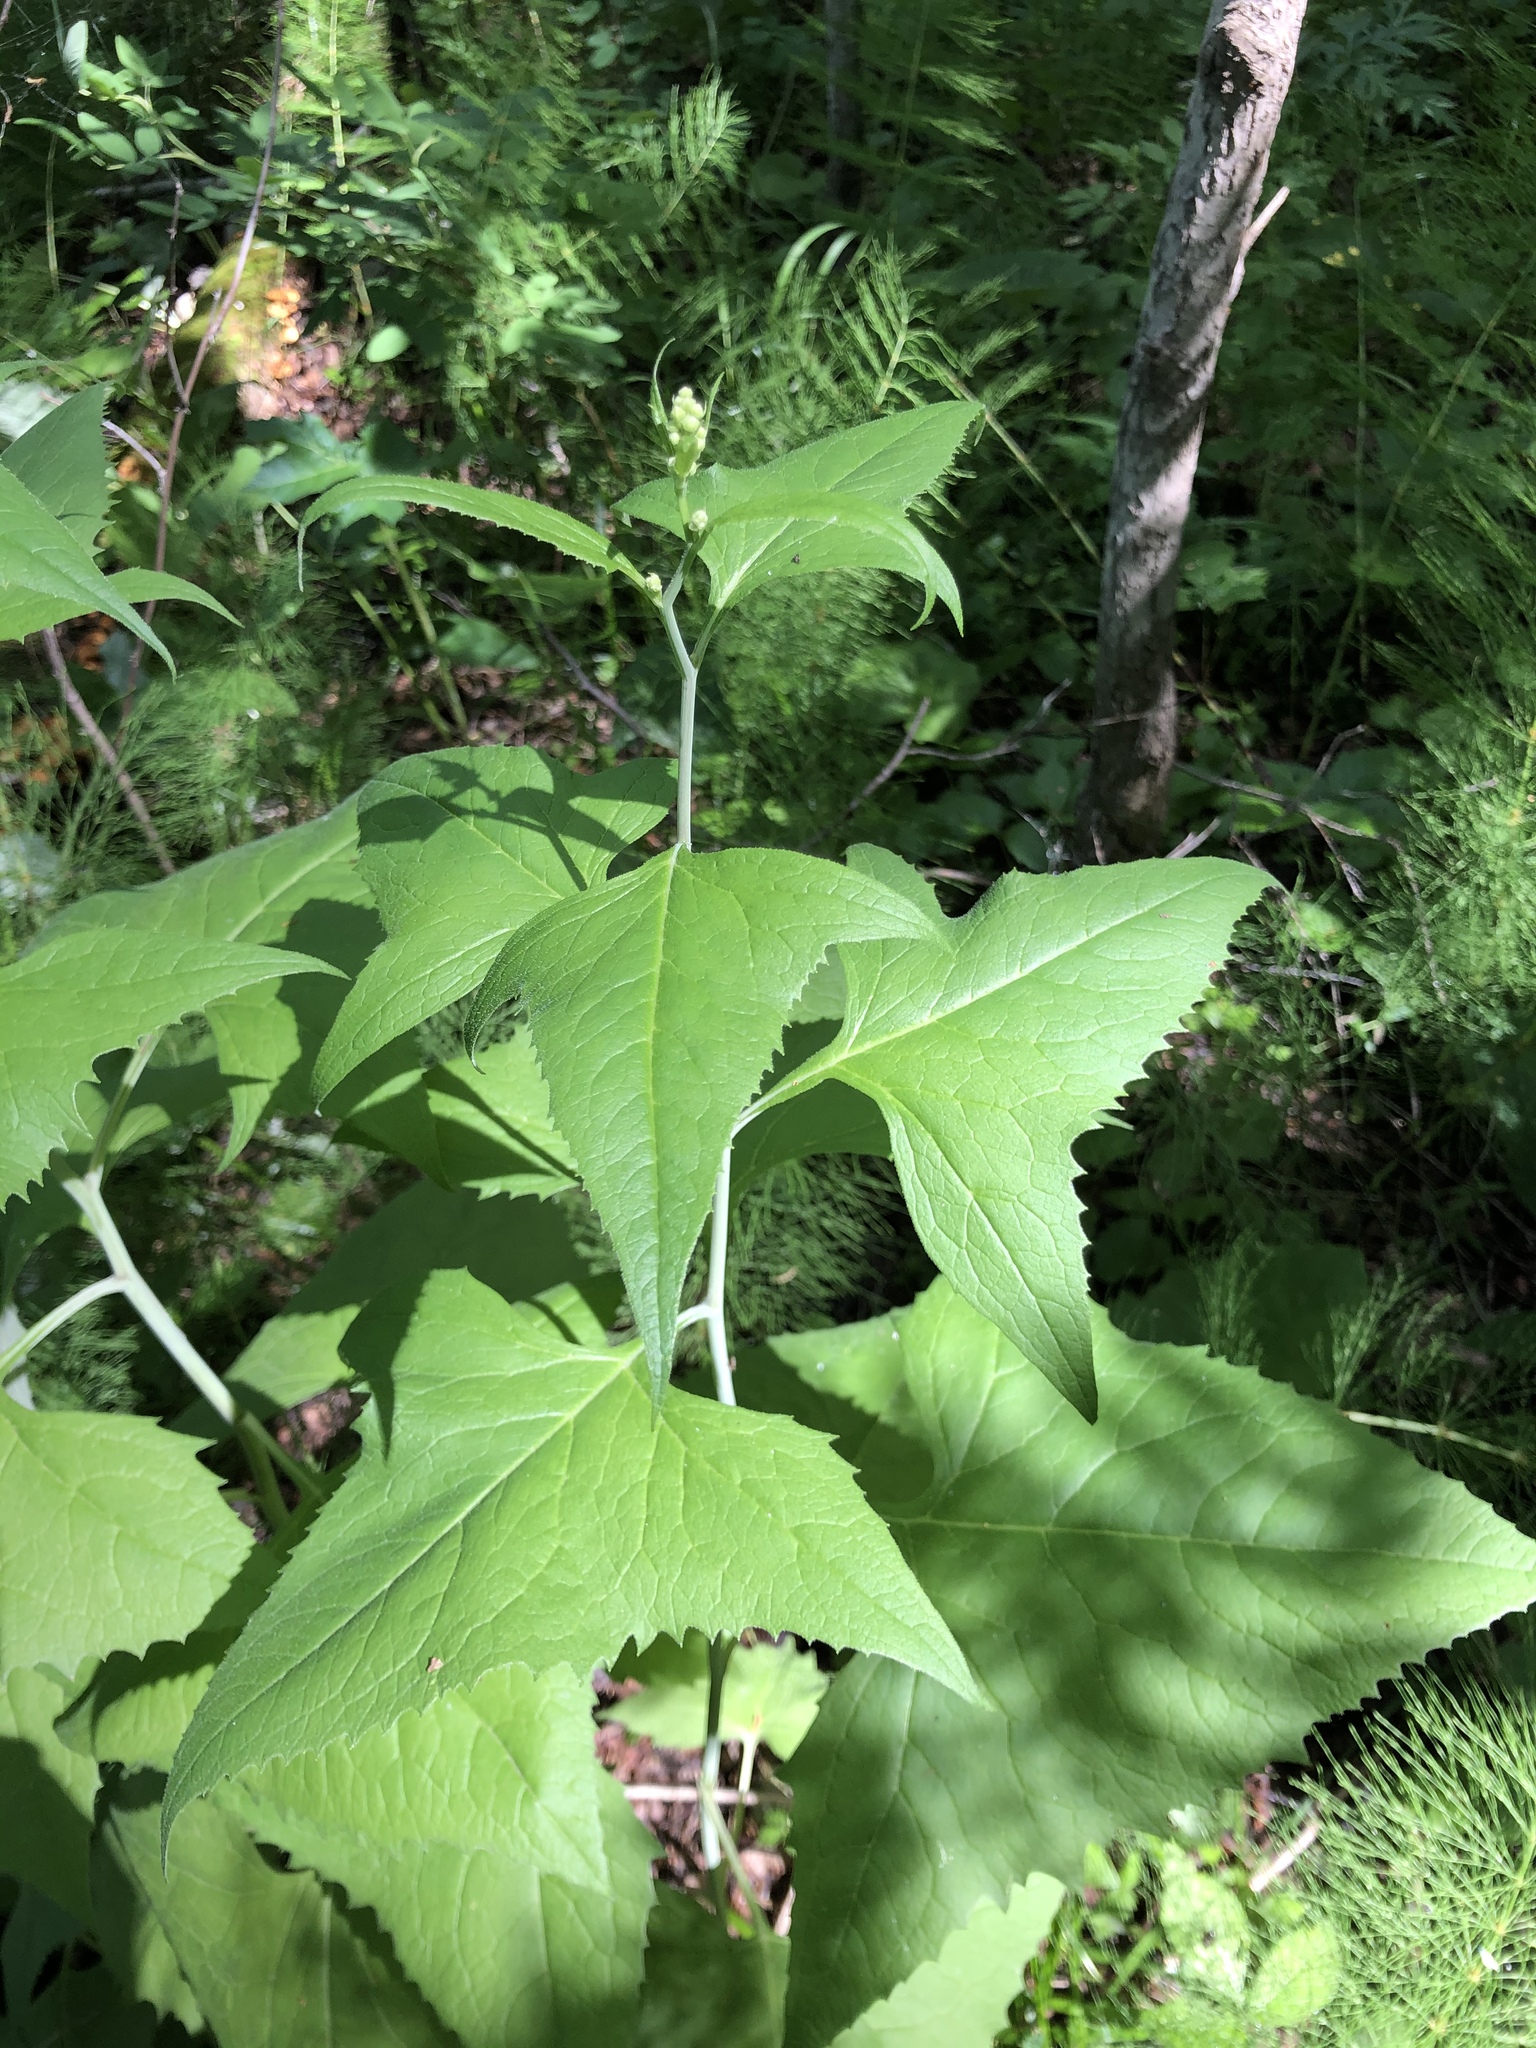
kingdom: Plantae
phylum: Tracheophyta
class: Magnoliopsida
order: Asterales
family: Asteraceae
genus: Parasenecio
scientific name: Parasenecio hastatus
